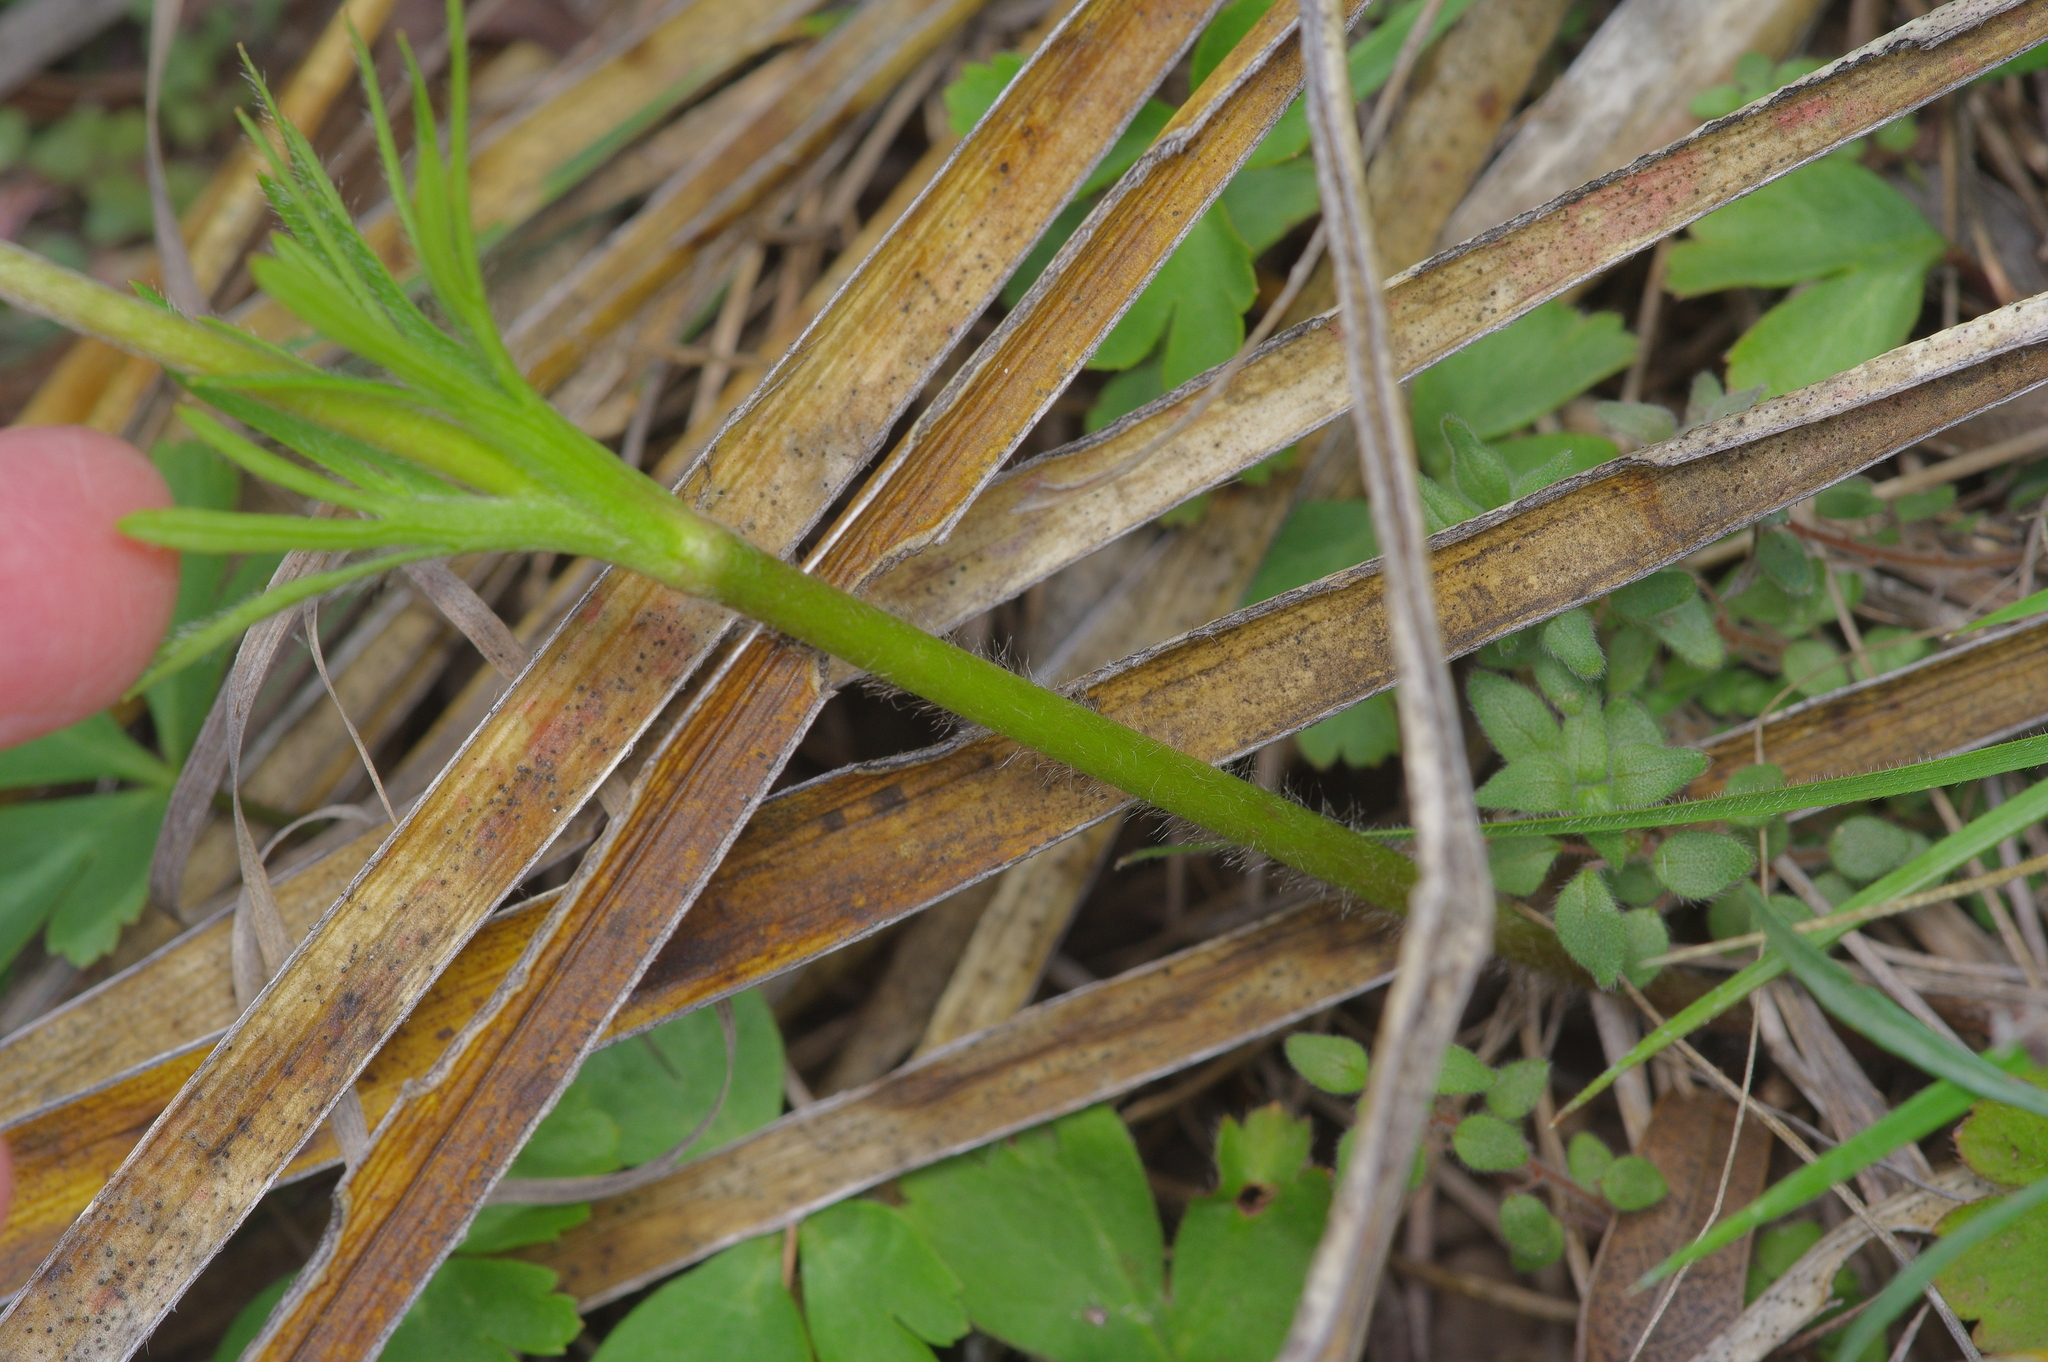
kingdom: Plantae
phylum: Tracheophyta
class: Magnoliopsida
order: Ranunculales
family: Ranunculaceae
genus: Anemone
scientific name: Anemone berlandieri
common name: Ten-petal anemone
